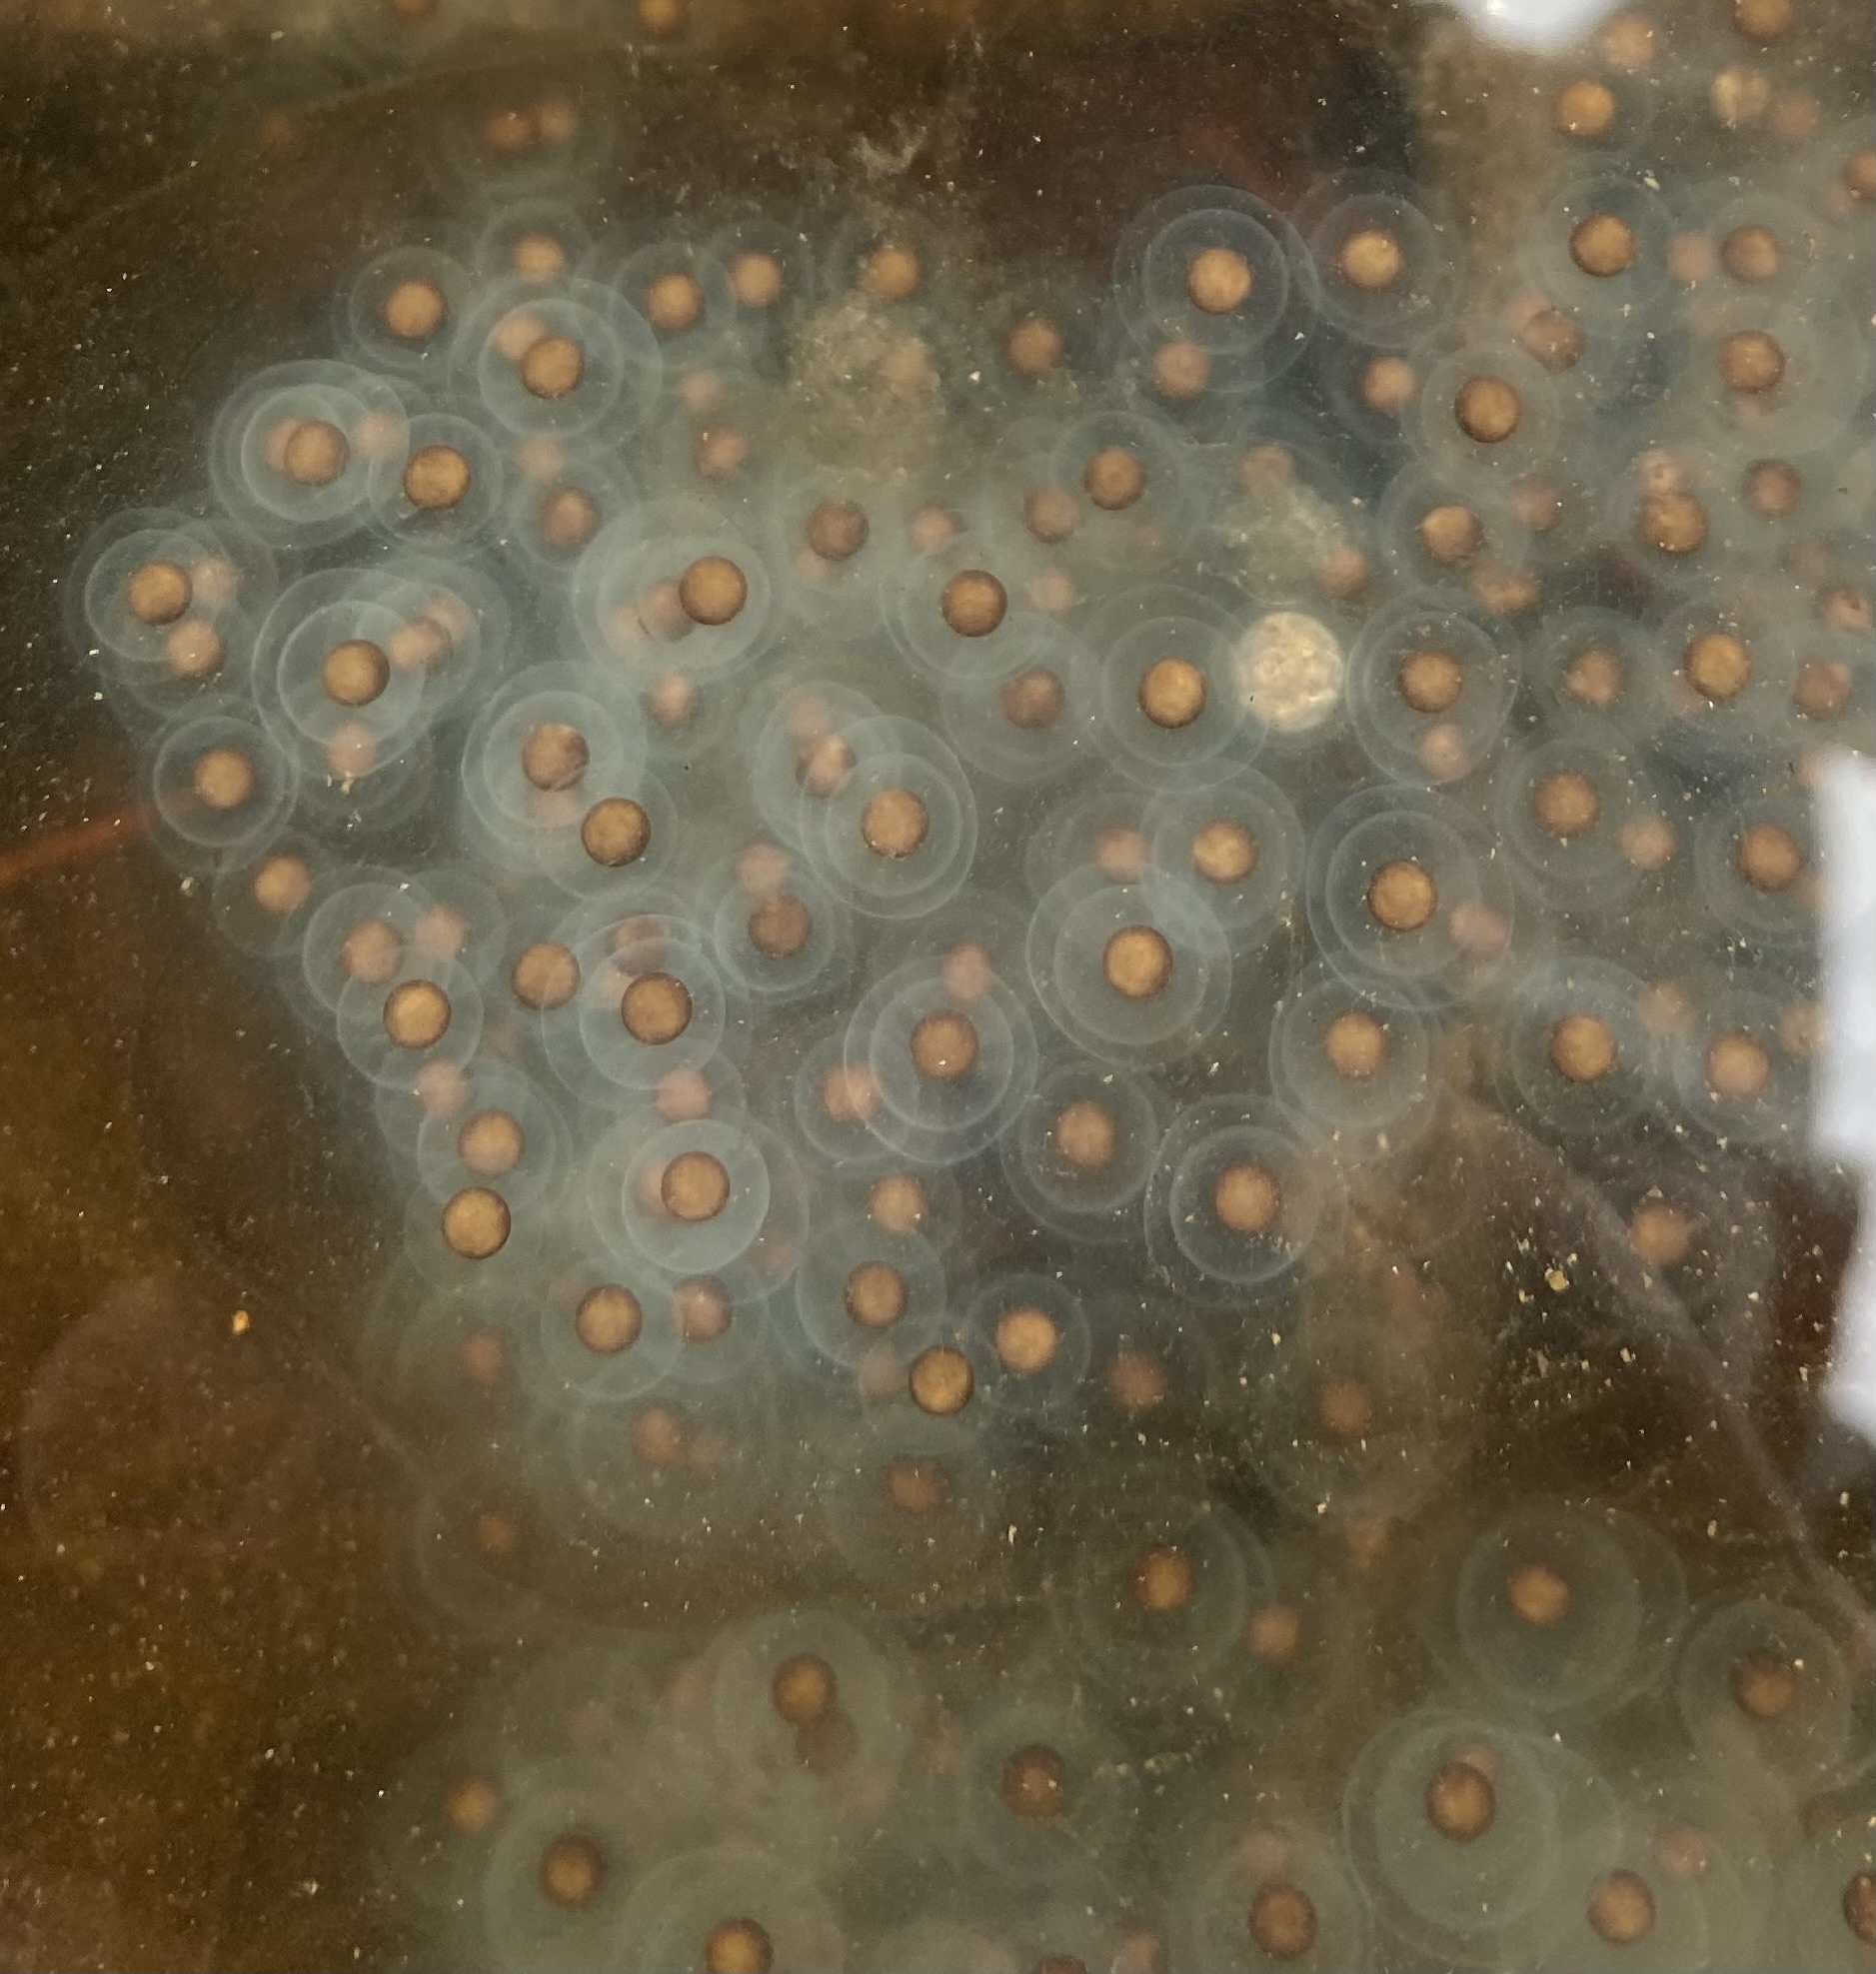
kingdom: Animalia
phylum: Chordata
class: Amphibia
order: Caudata
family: Ambystomatidae
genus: Ambystoma
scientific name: Ambystoma maculatum
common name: Spotted salamander
